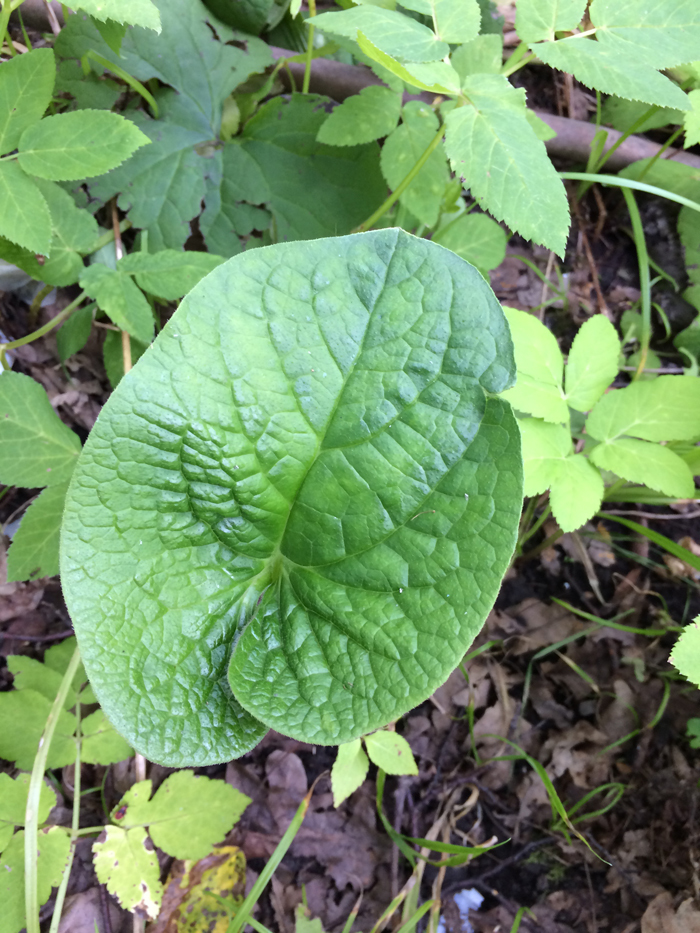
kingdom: Plantae
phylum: Tracheophyta
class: Magnoliopsida
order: Boraginales
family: Boraginaceae
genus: Brunnera
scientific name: Brunnera sibirica
